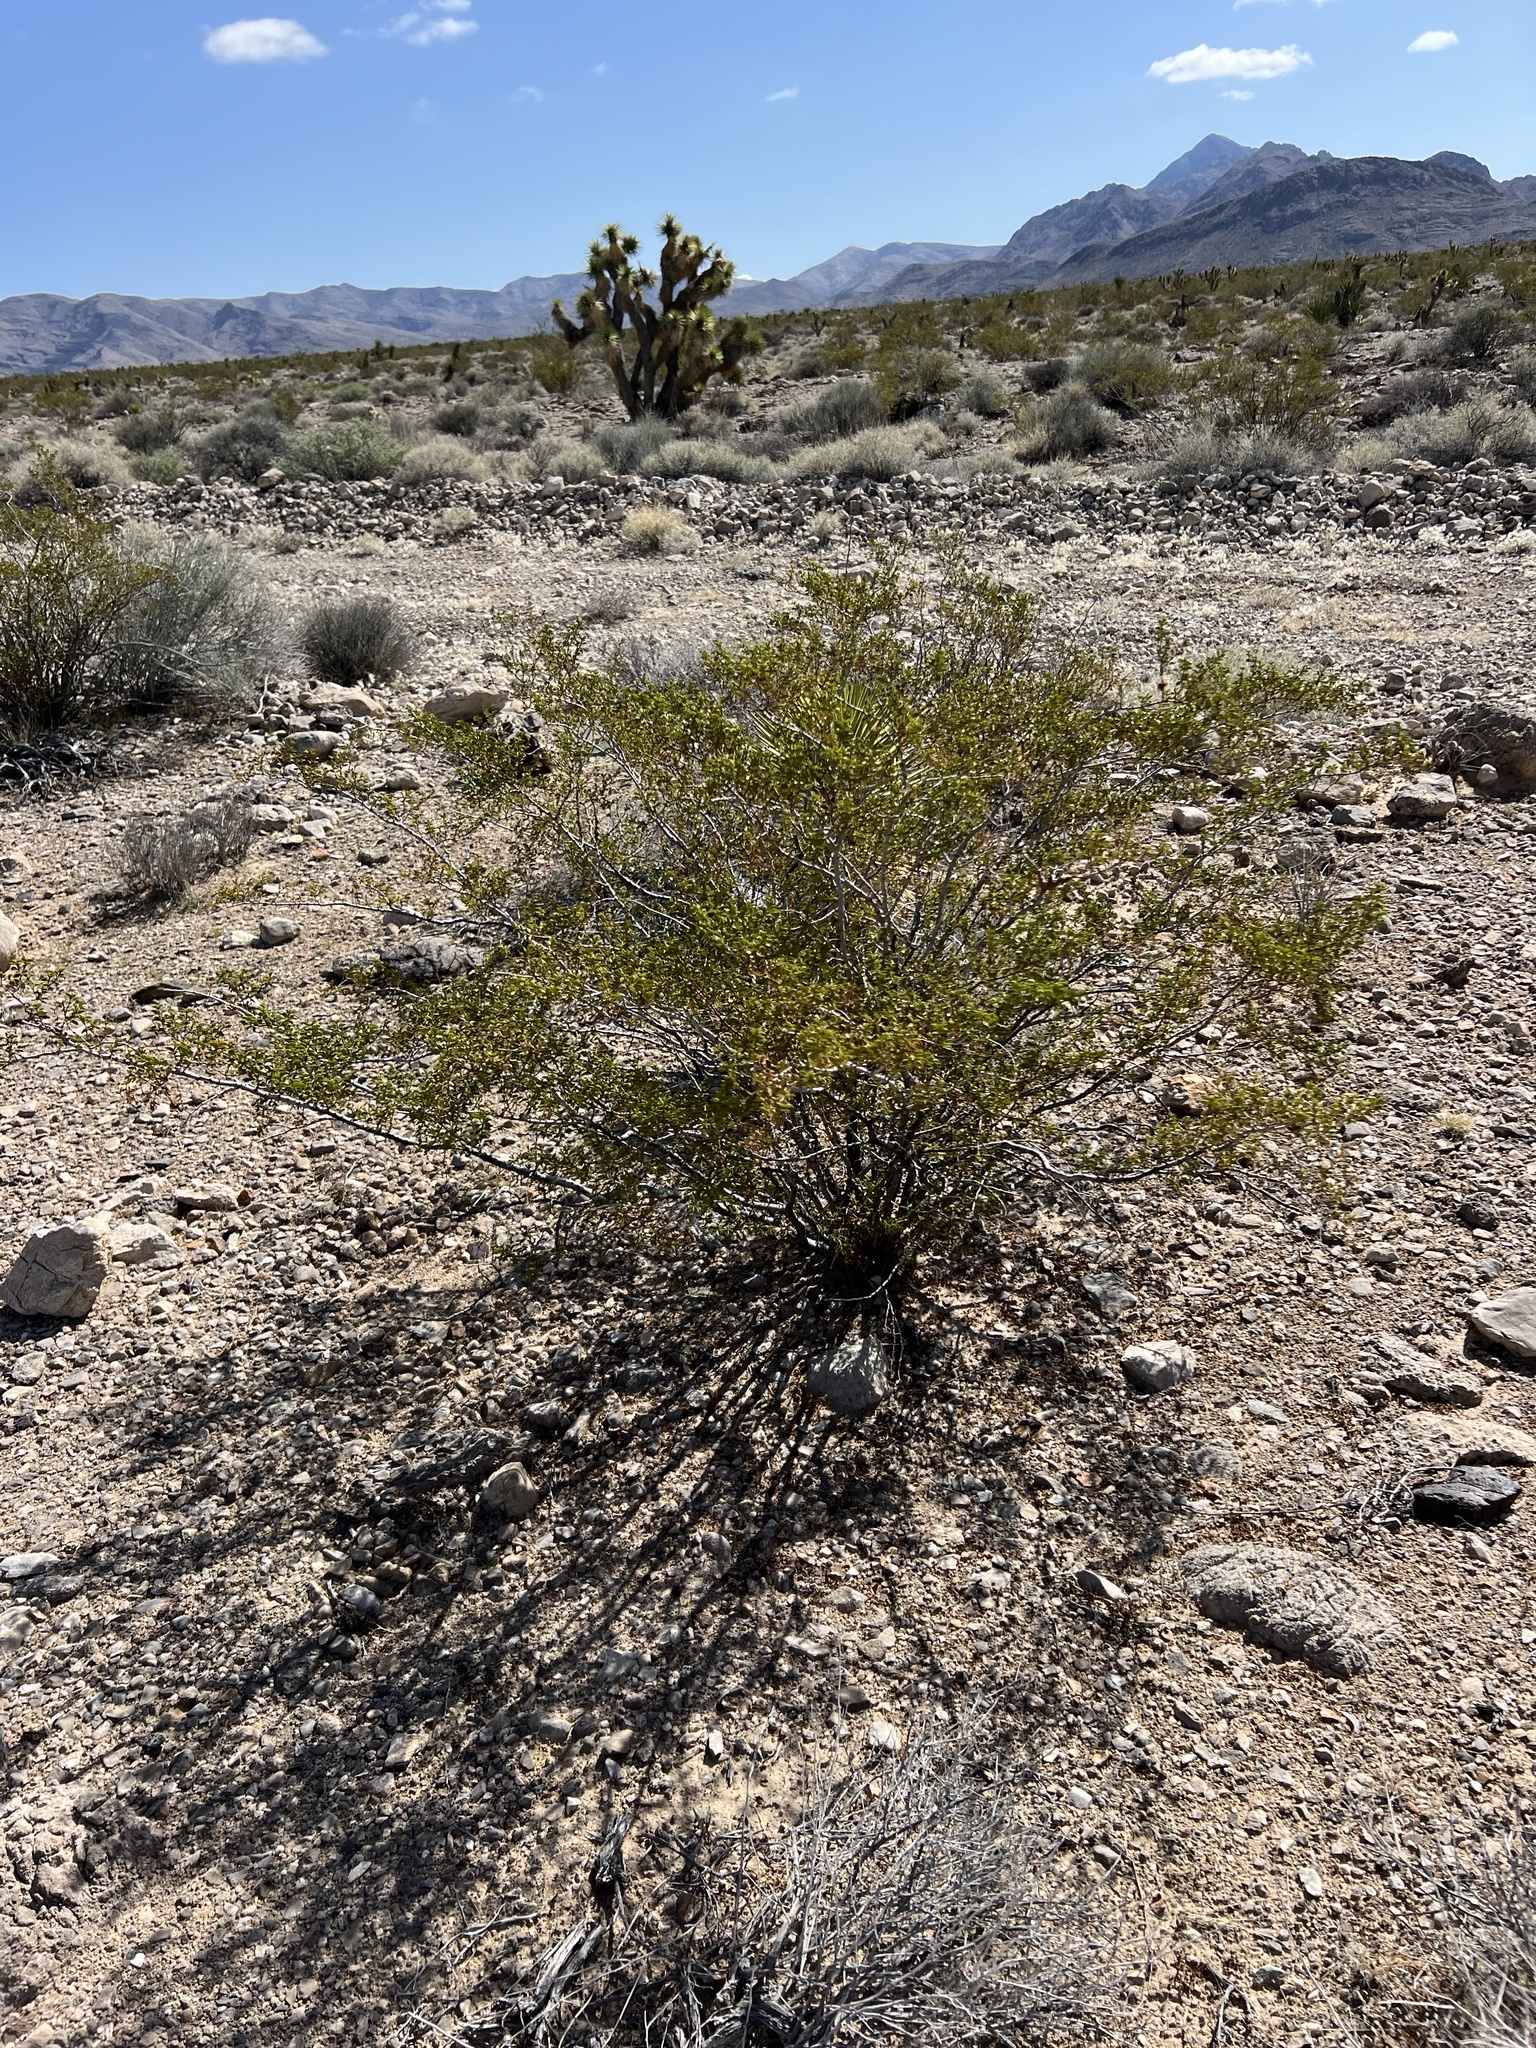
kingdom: Plantae
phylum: Tracheophyta
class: Magnoliopsida
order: Zygophyllales
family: Zygophyllaceae
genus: Larrea
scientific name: Larrea tridentata
